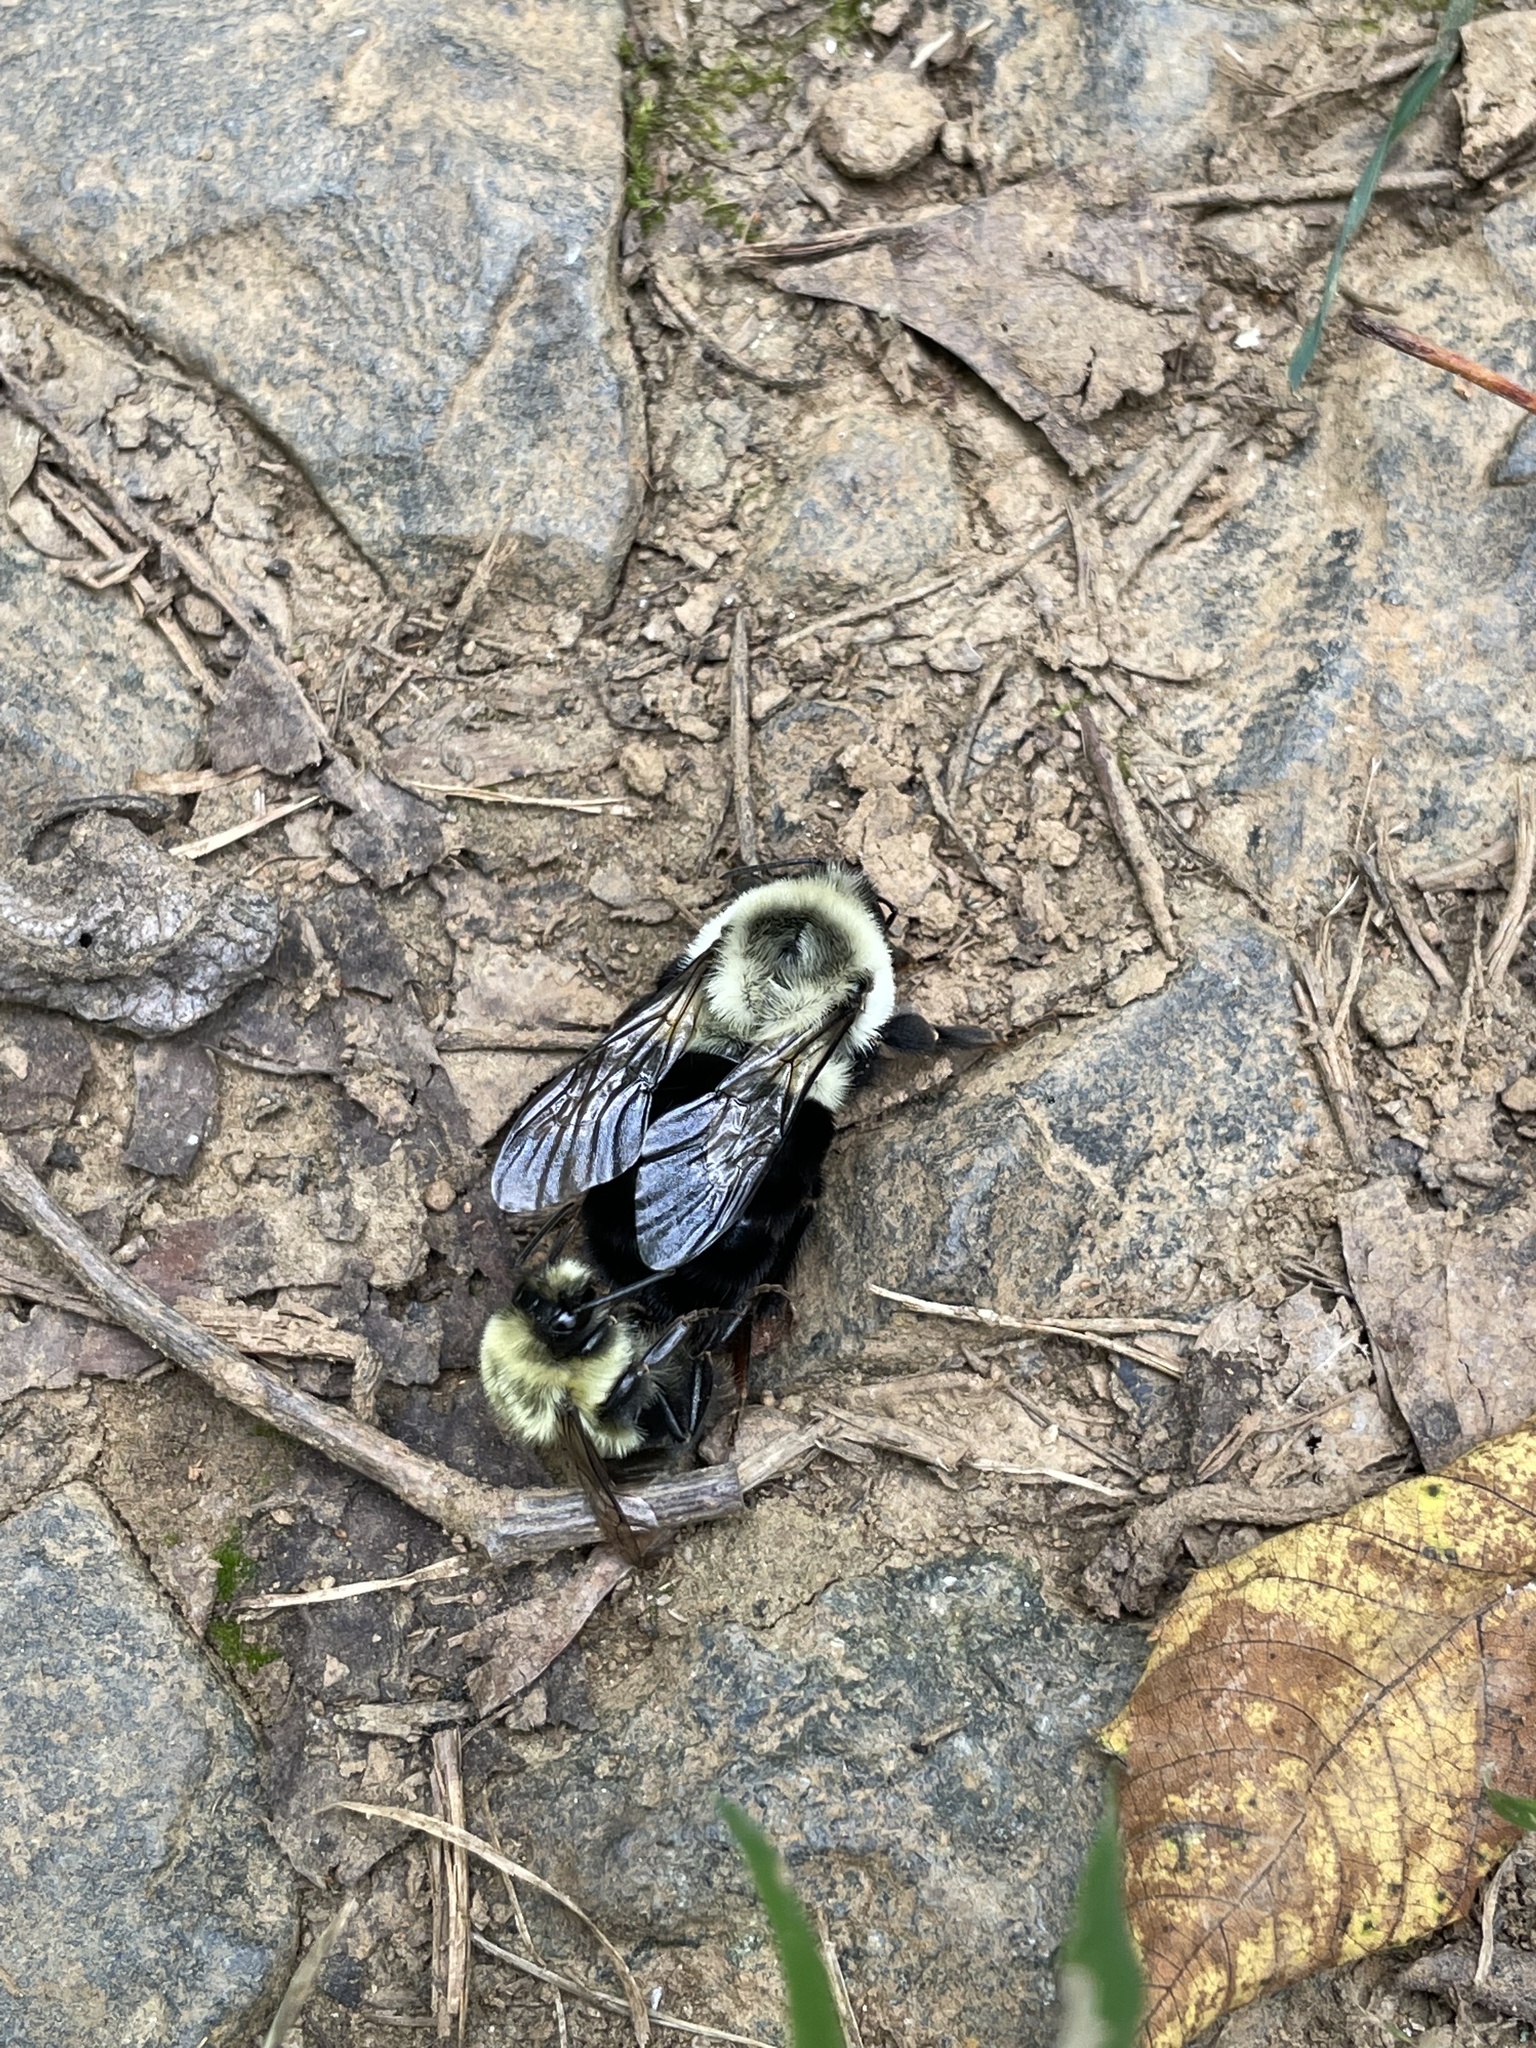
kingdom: Animalia
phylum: Arthropoda
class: Insecta
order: Hymenoptera
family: Apidae
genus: Bombus
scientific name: Bombus impatiens
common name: Common eastern bumble bee
